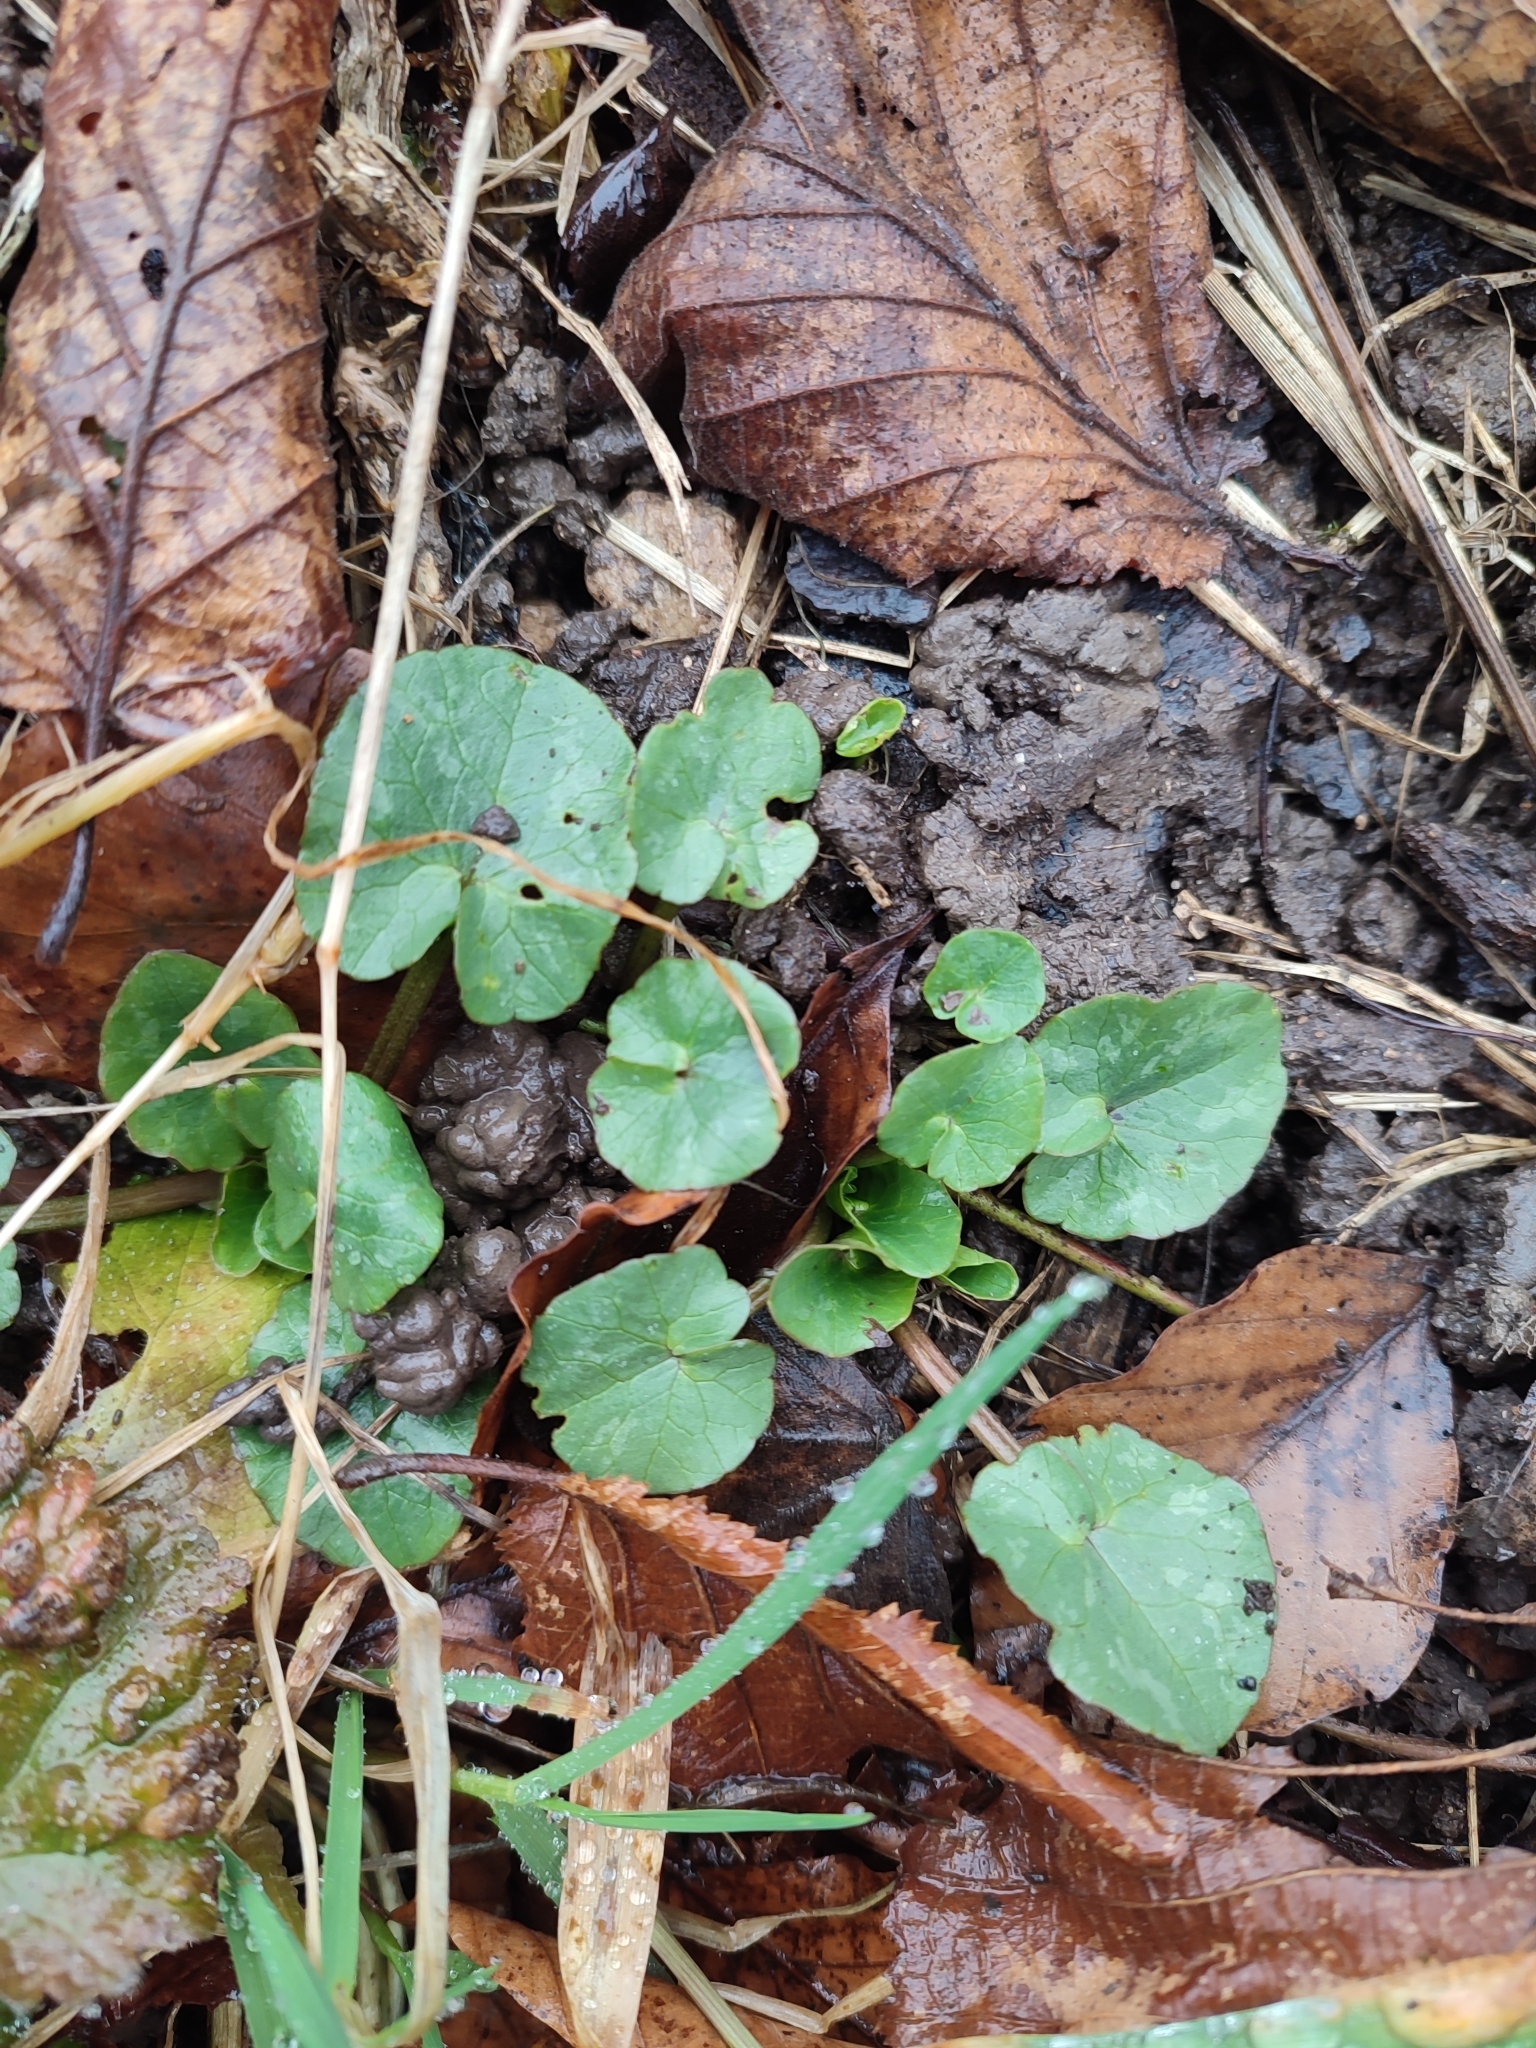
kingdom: Plantae
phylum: Tracheophyta
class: Magnoliopsida
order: Ranunculales
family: Ranunculaceae
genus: Ficaria
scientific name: Ficaria verna
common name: Lesser celandine
